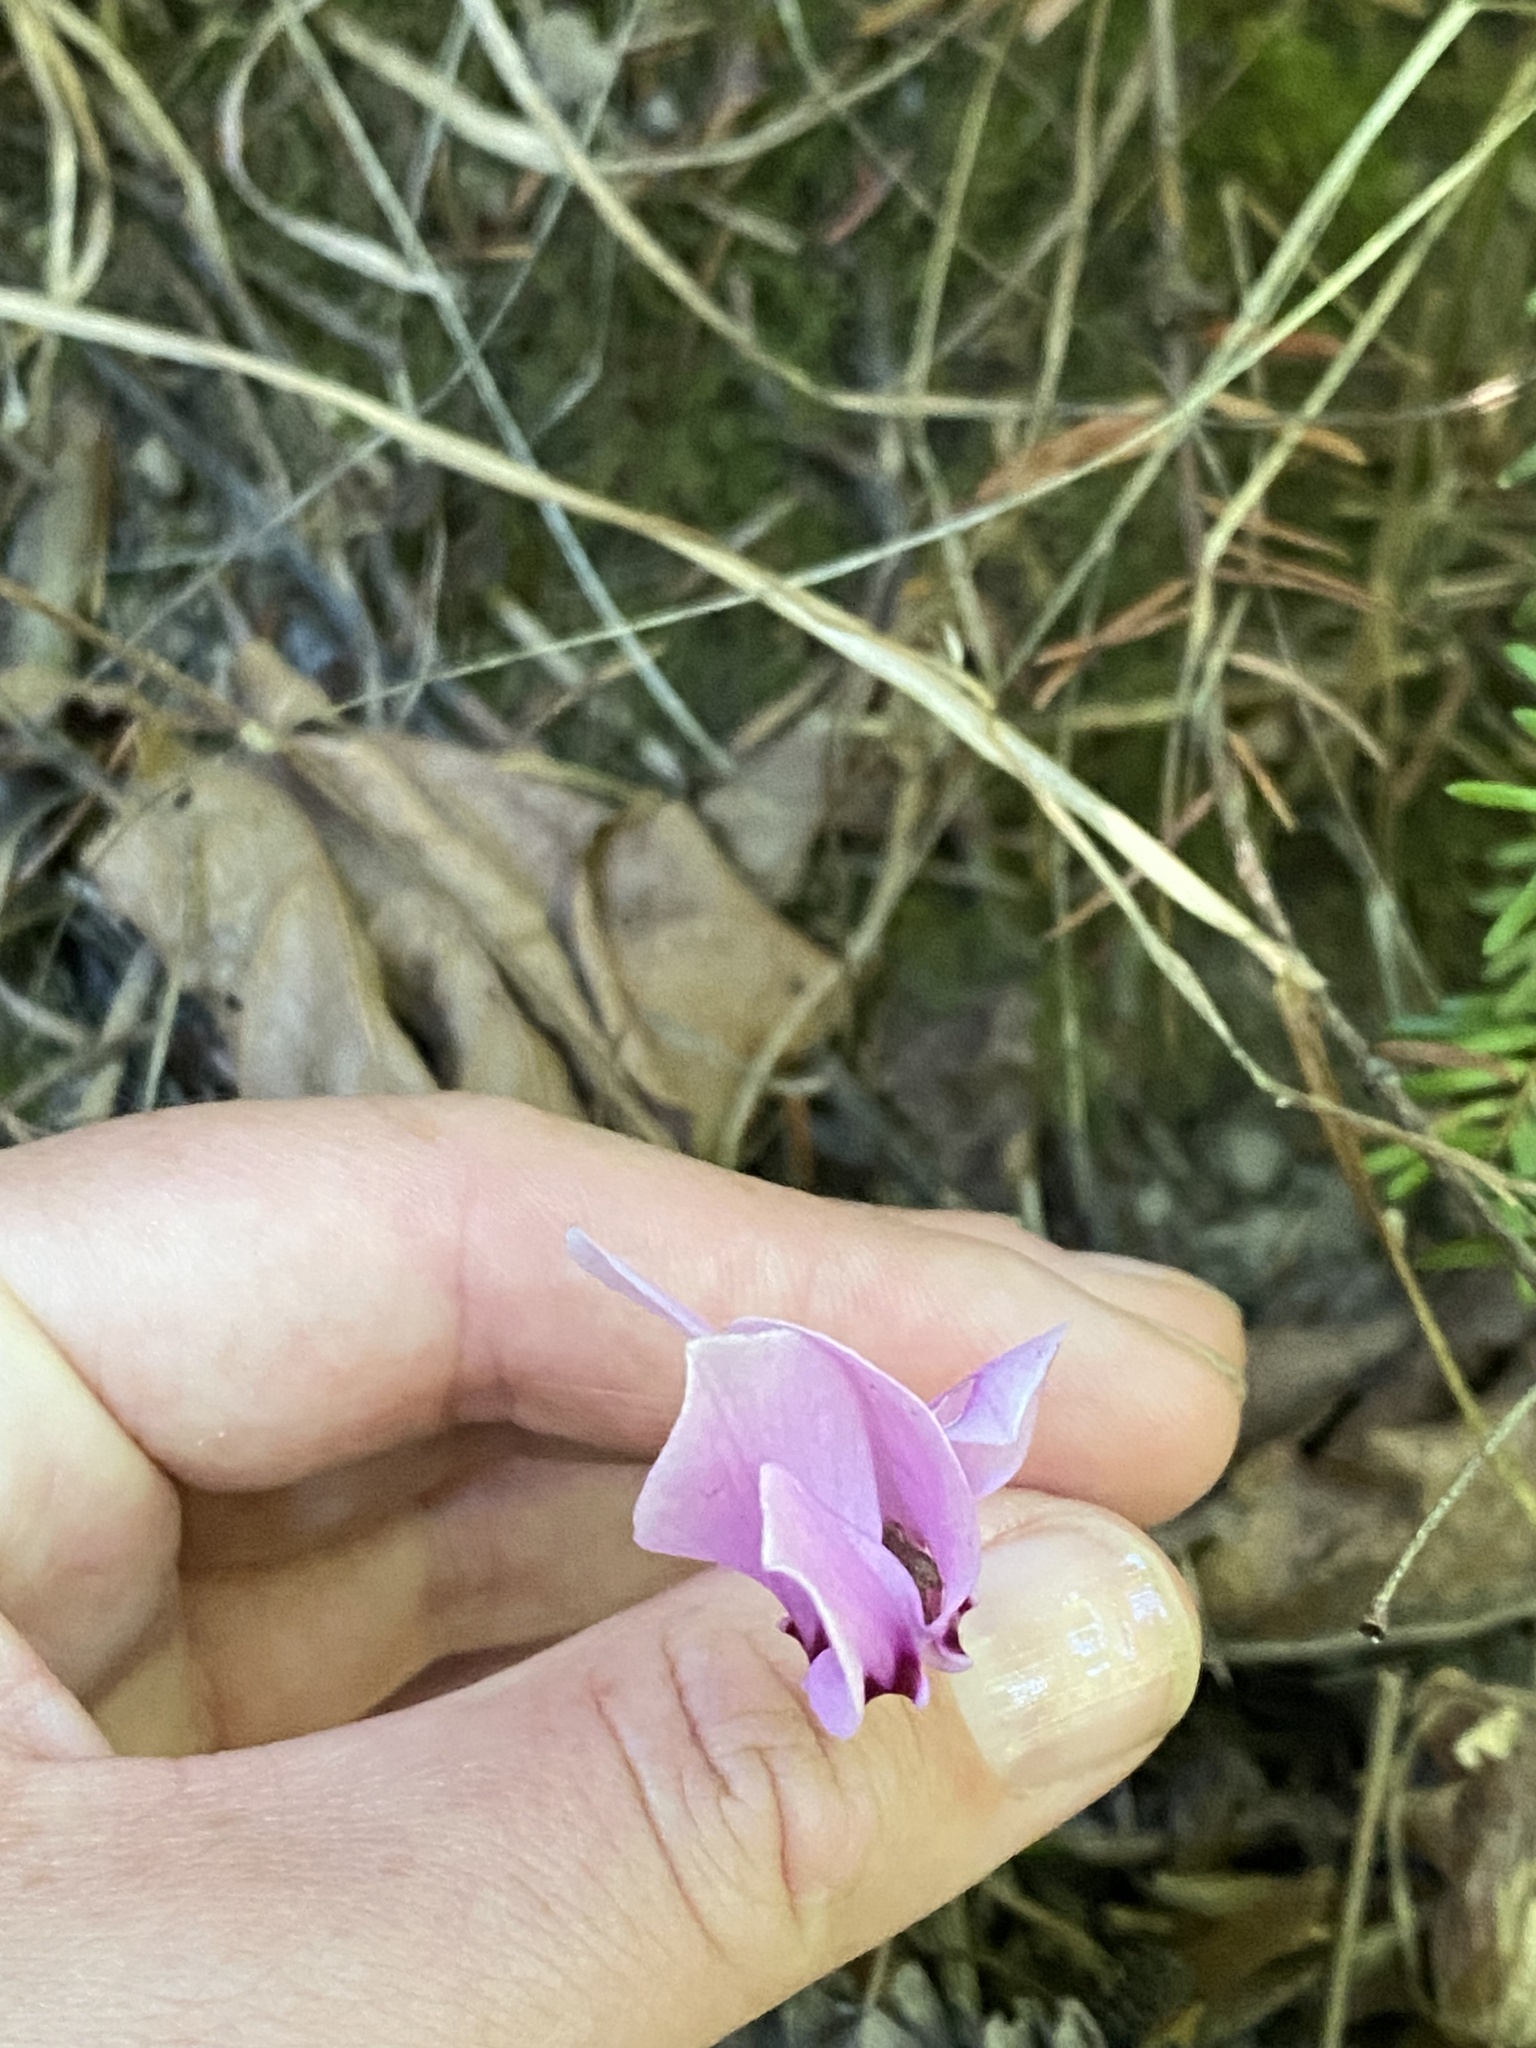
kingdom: Plantae
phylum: Tracheophyta
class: Magnoliopsida
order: Ericales
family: Primulaceae
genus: Cyclamen
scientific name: Cyclamen hederifolium
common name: Sowbread
